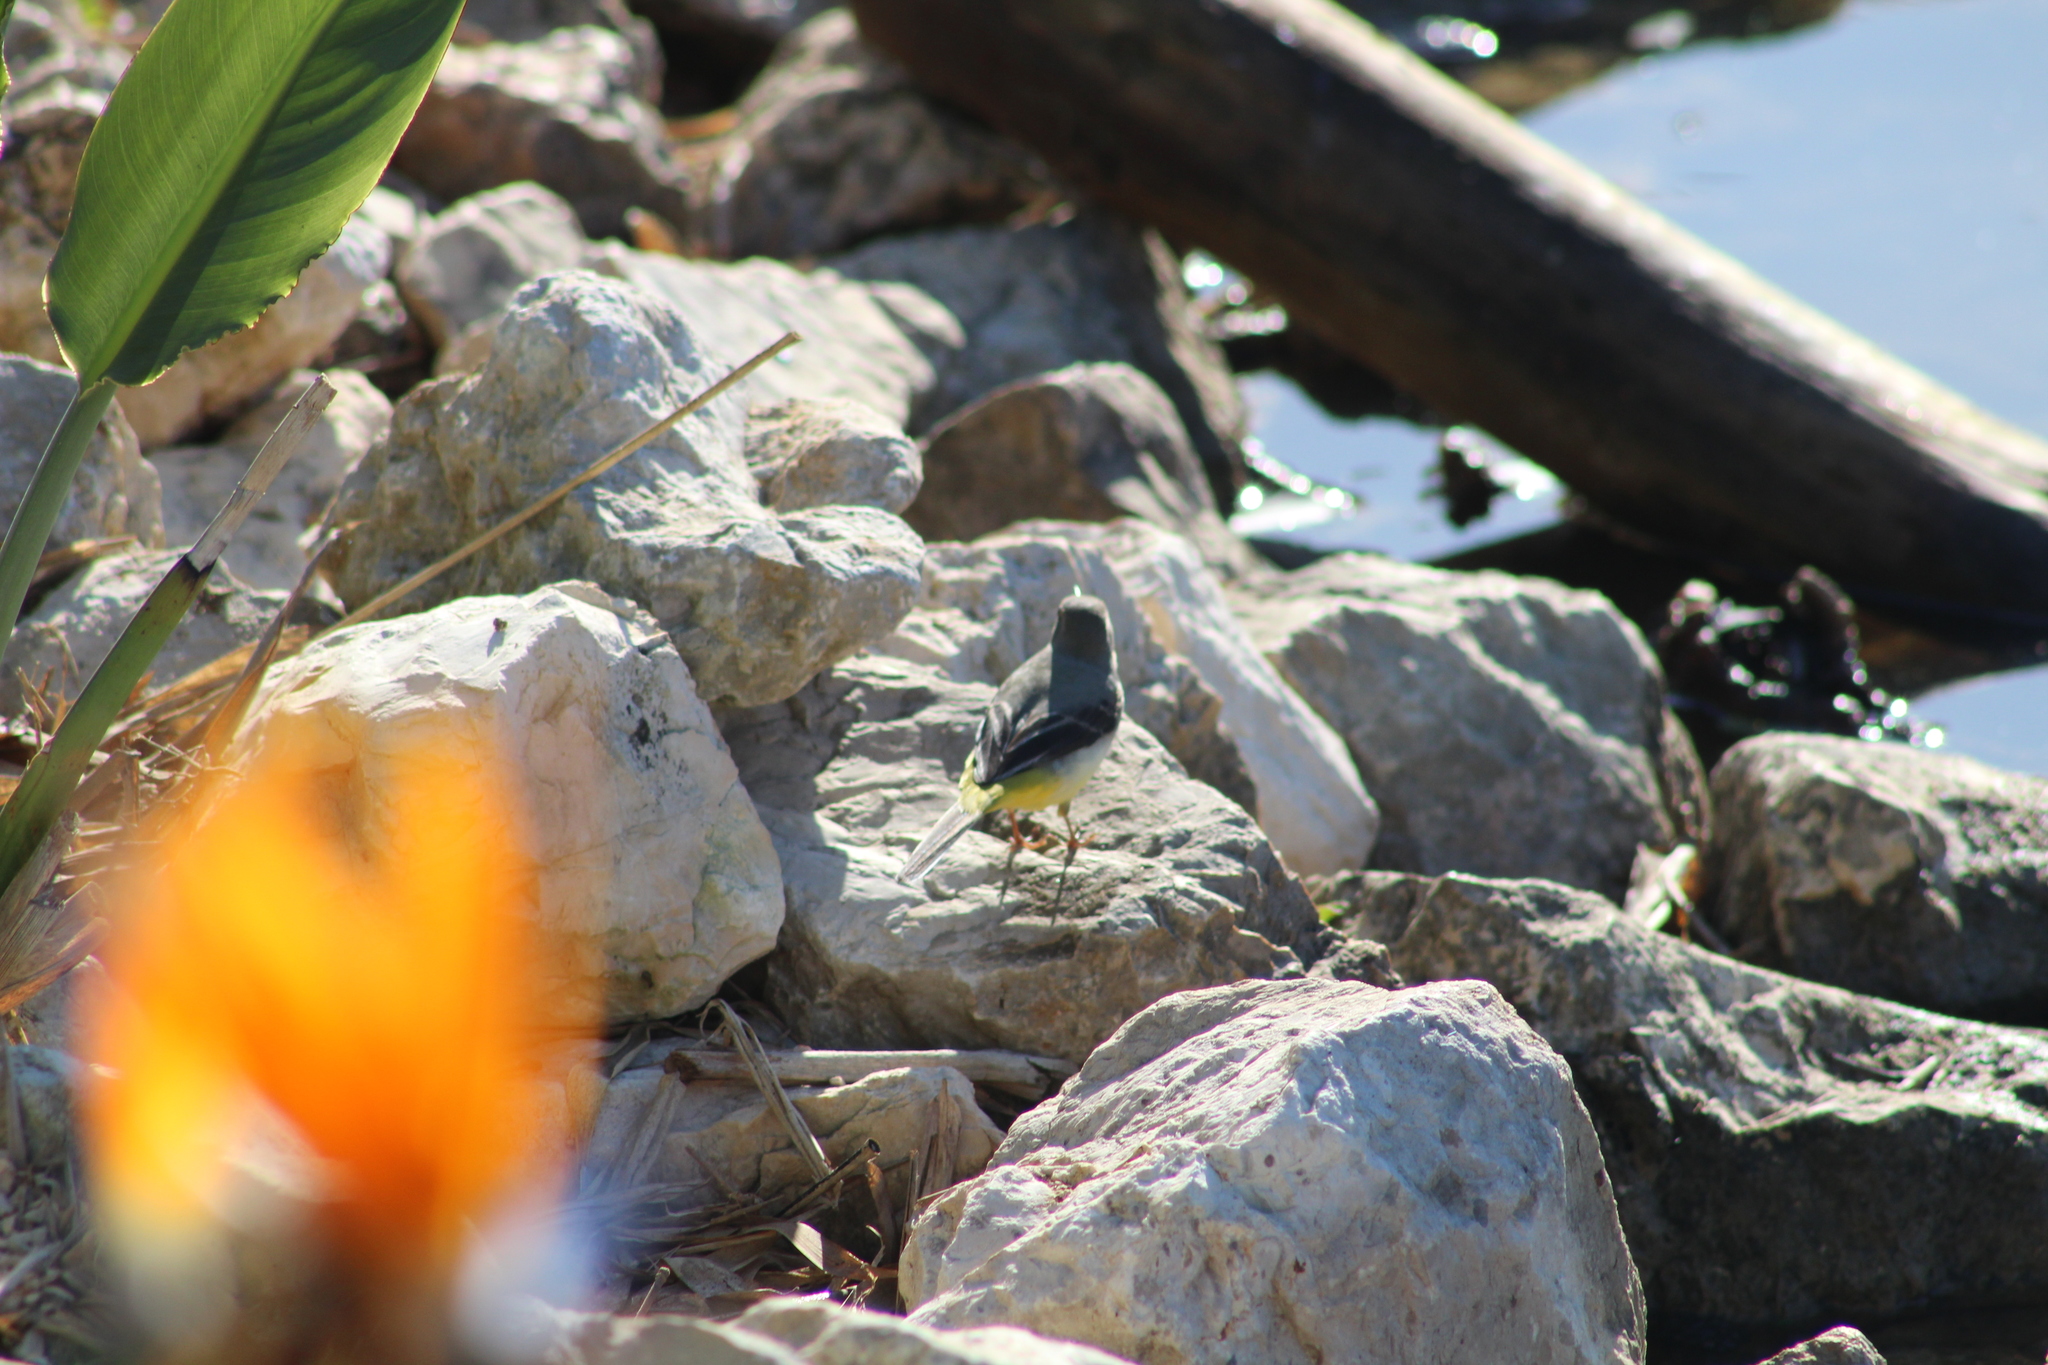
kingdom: Animalia
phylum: Chordata
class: Aves
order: Passeriformes
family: Motacillidae
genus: Motacilla
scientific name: Motacilla cinerea
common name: Grey wagtail
